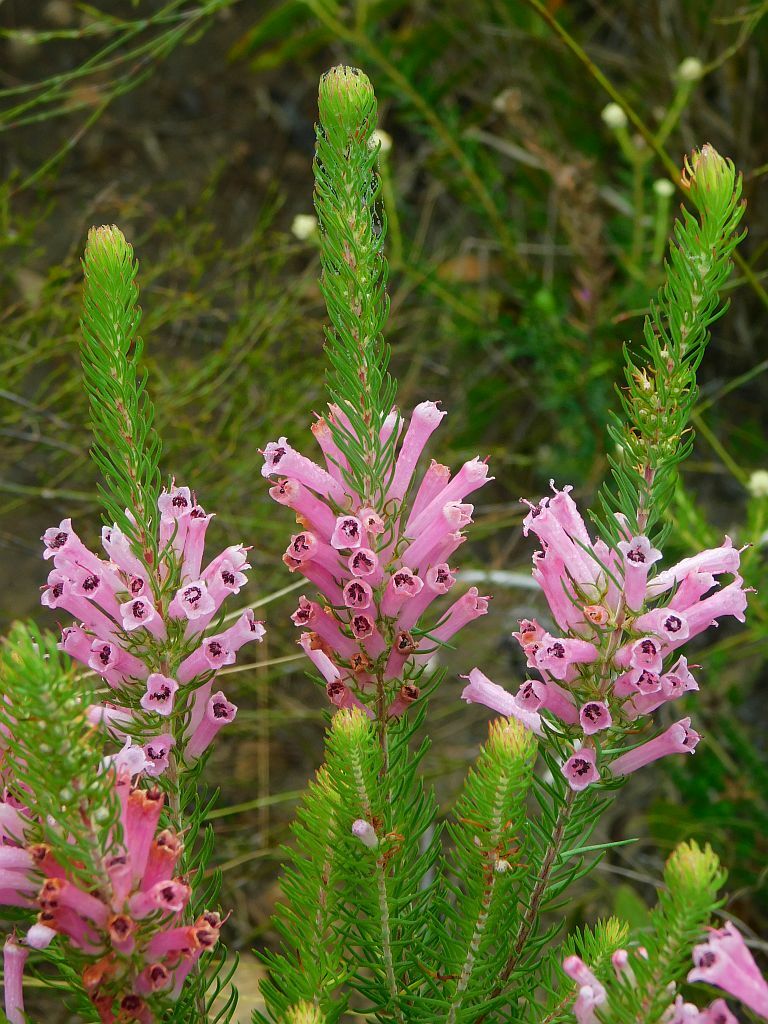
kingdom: Plantae
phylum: Tracheophyta
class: Magnoliopsida
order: Ericales
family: Ericaceae
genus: Erica
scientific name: Erica pinea
